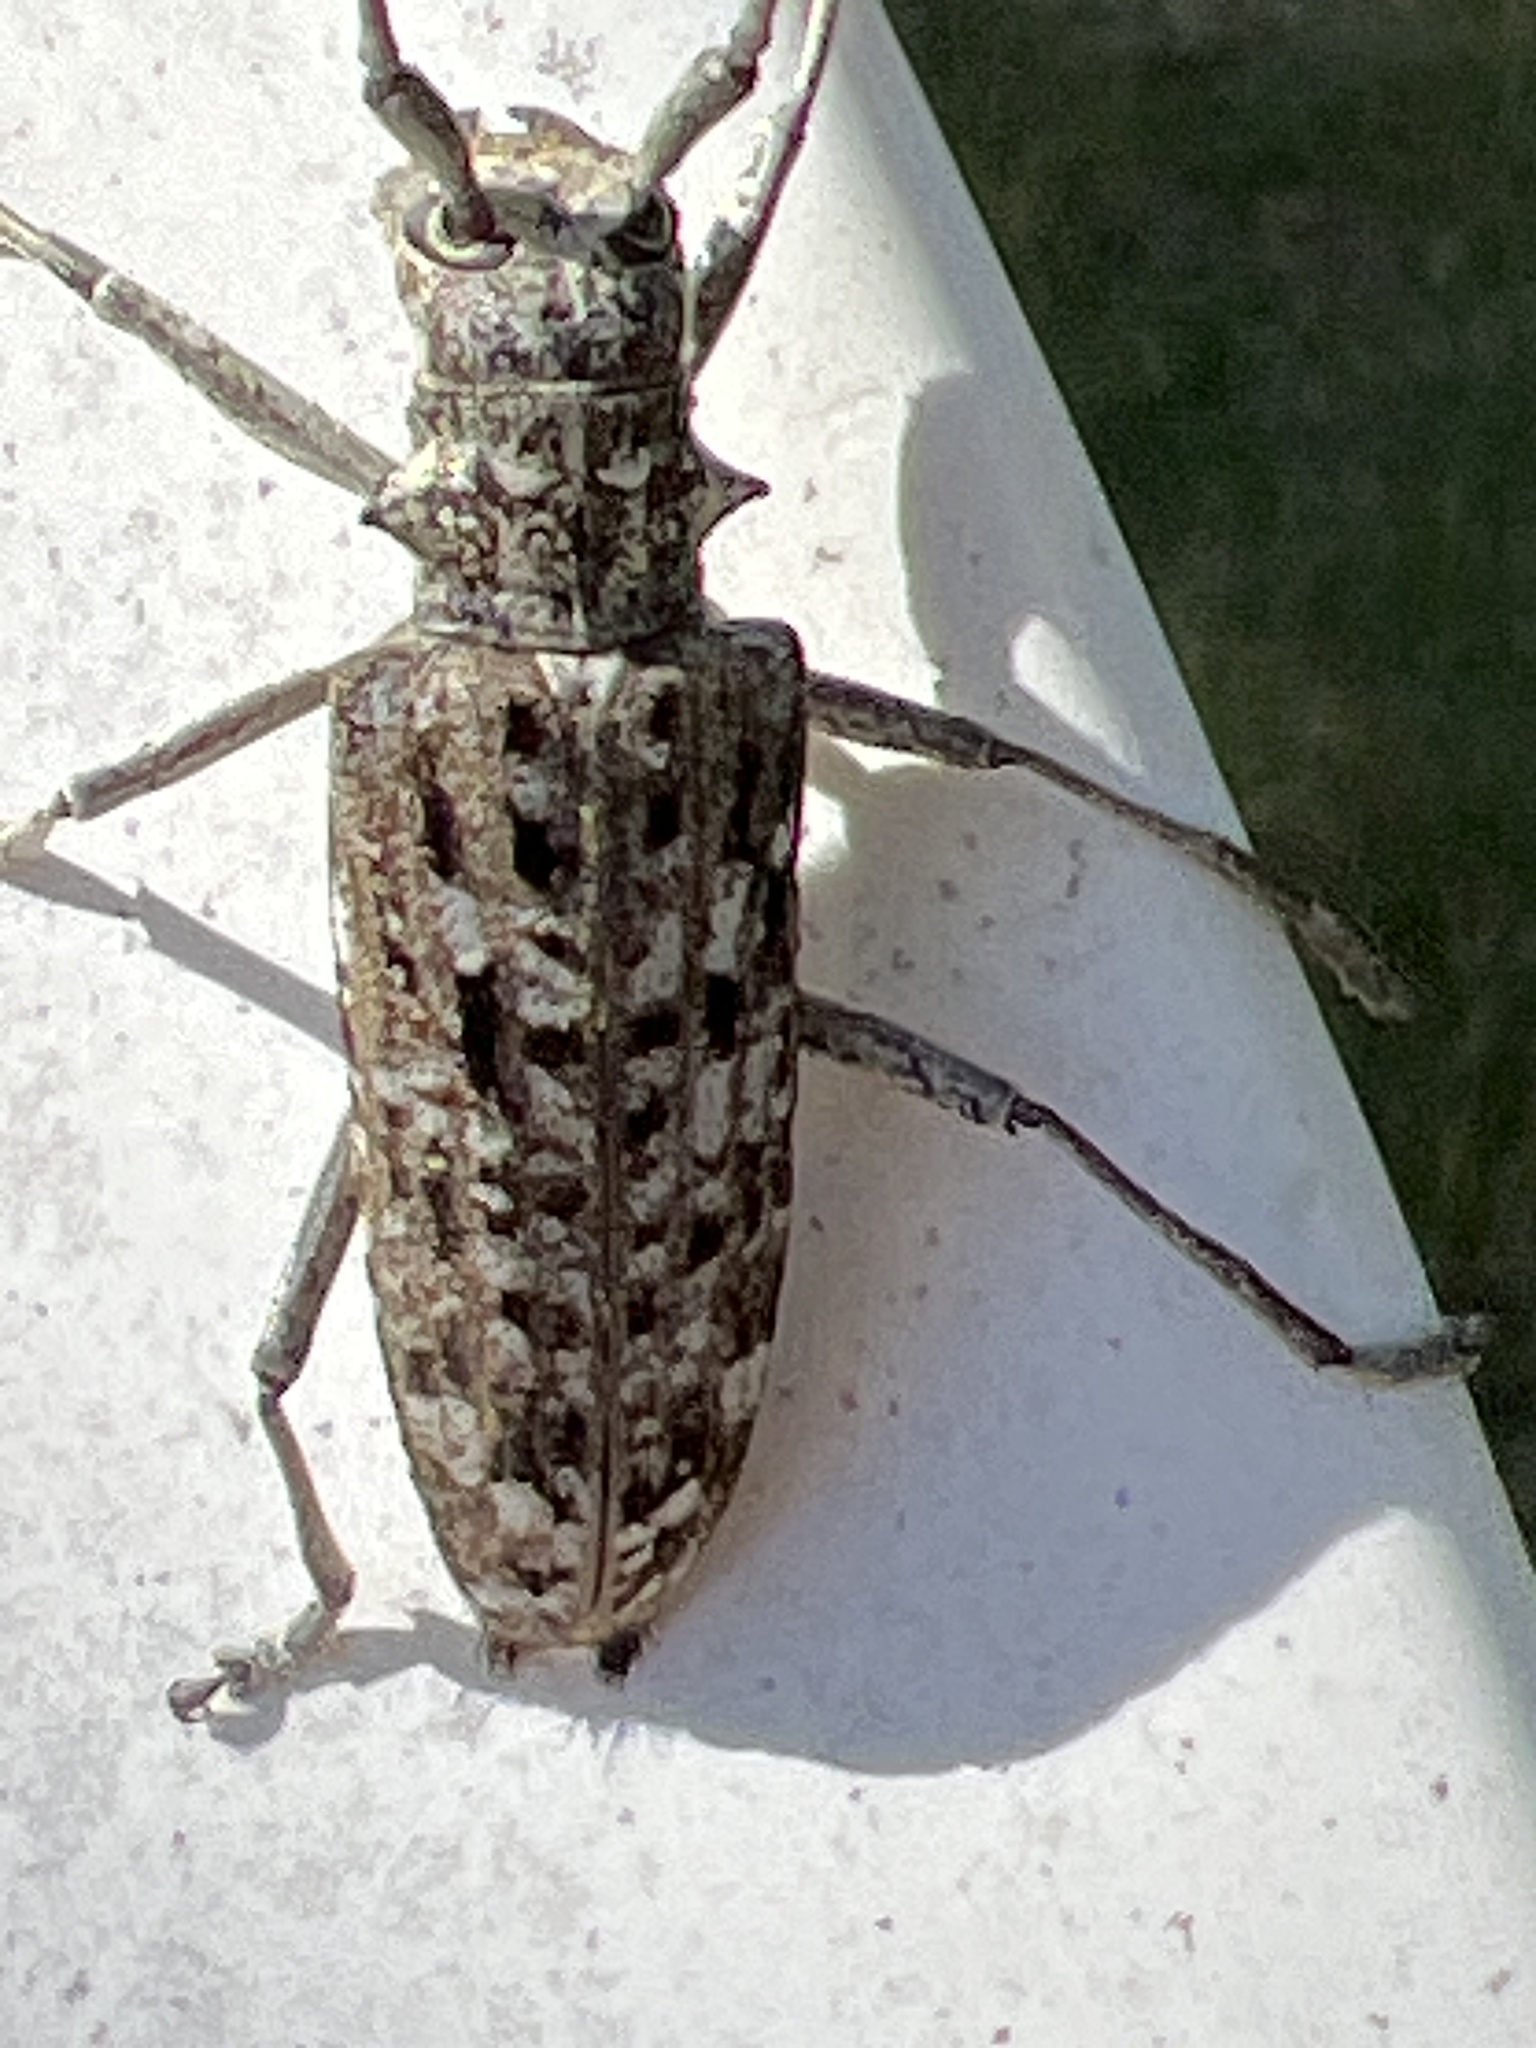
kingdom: Animalia
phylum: Arthropoda
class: Insecta
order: Coleoptera
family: Cerambycidae
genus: Monochamus
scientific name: Monochamus notatus
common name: Northeastern pine sawyer beetle
